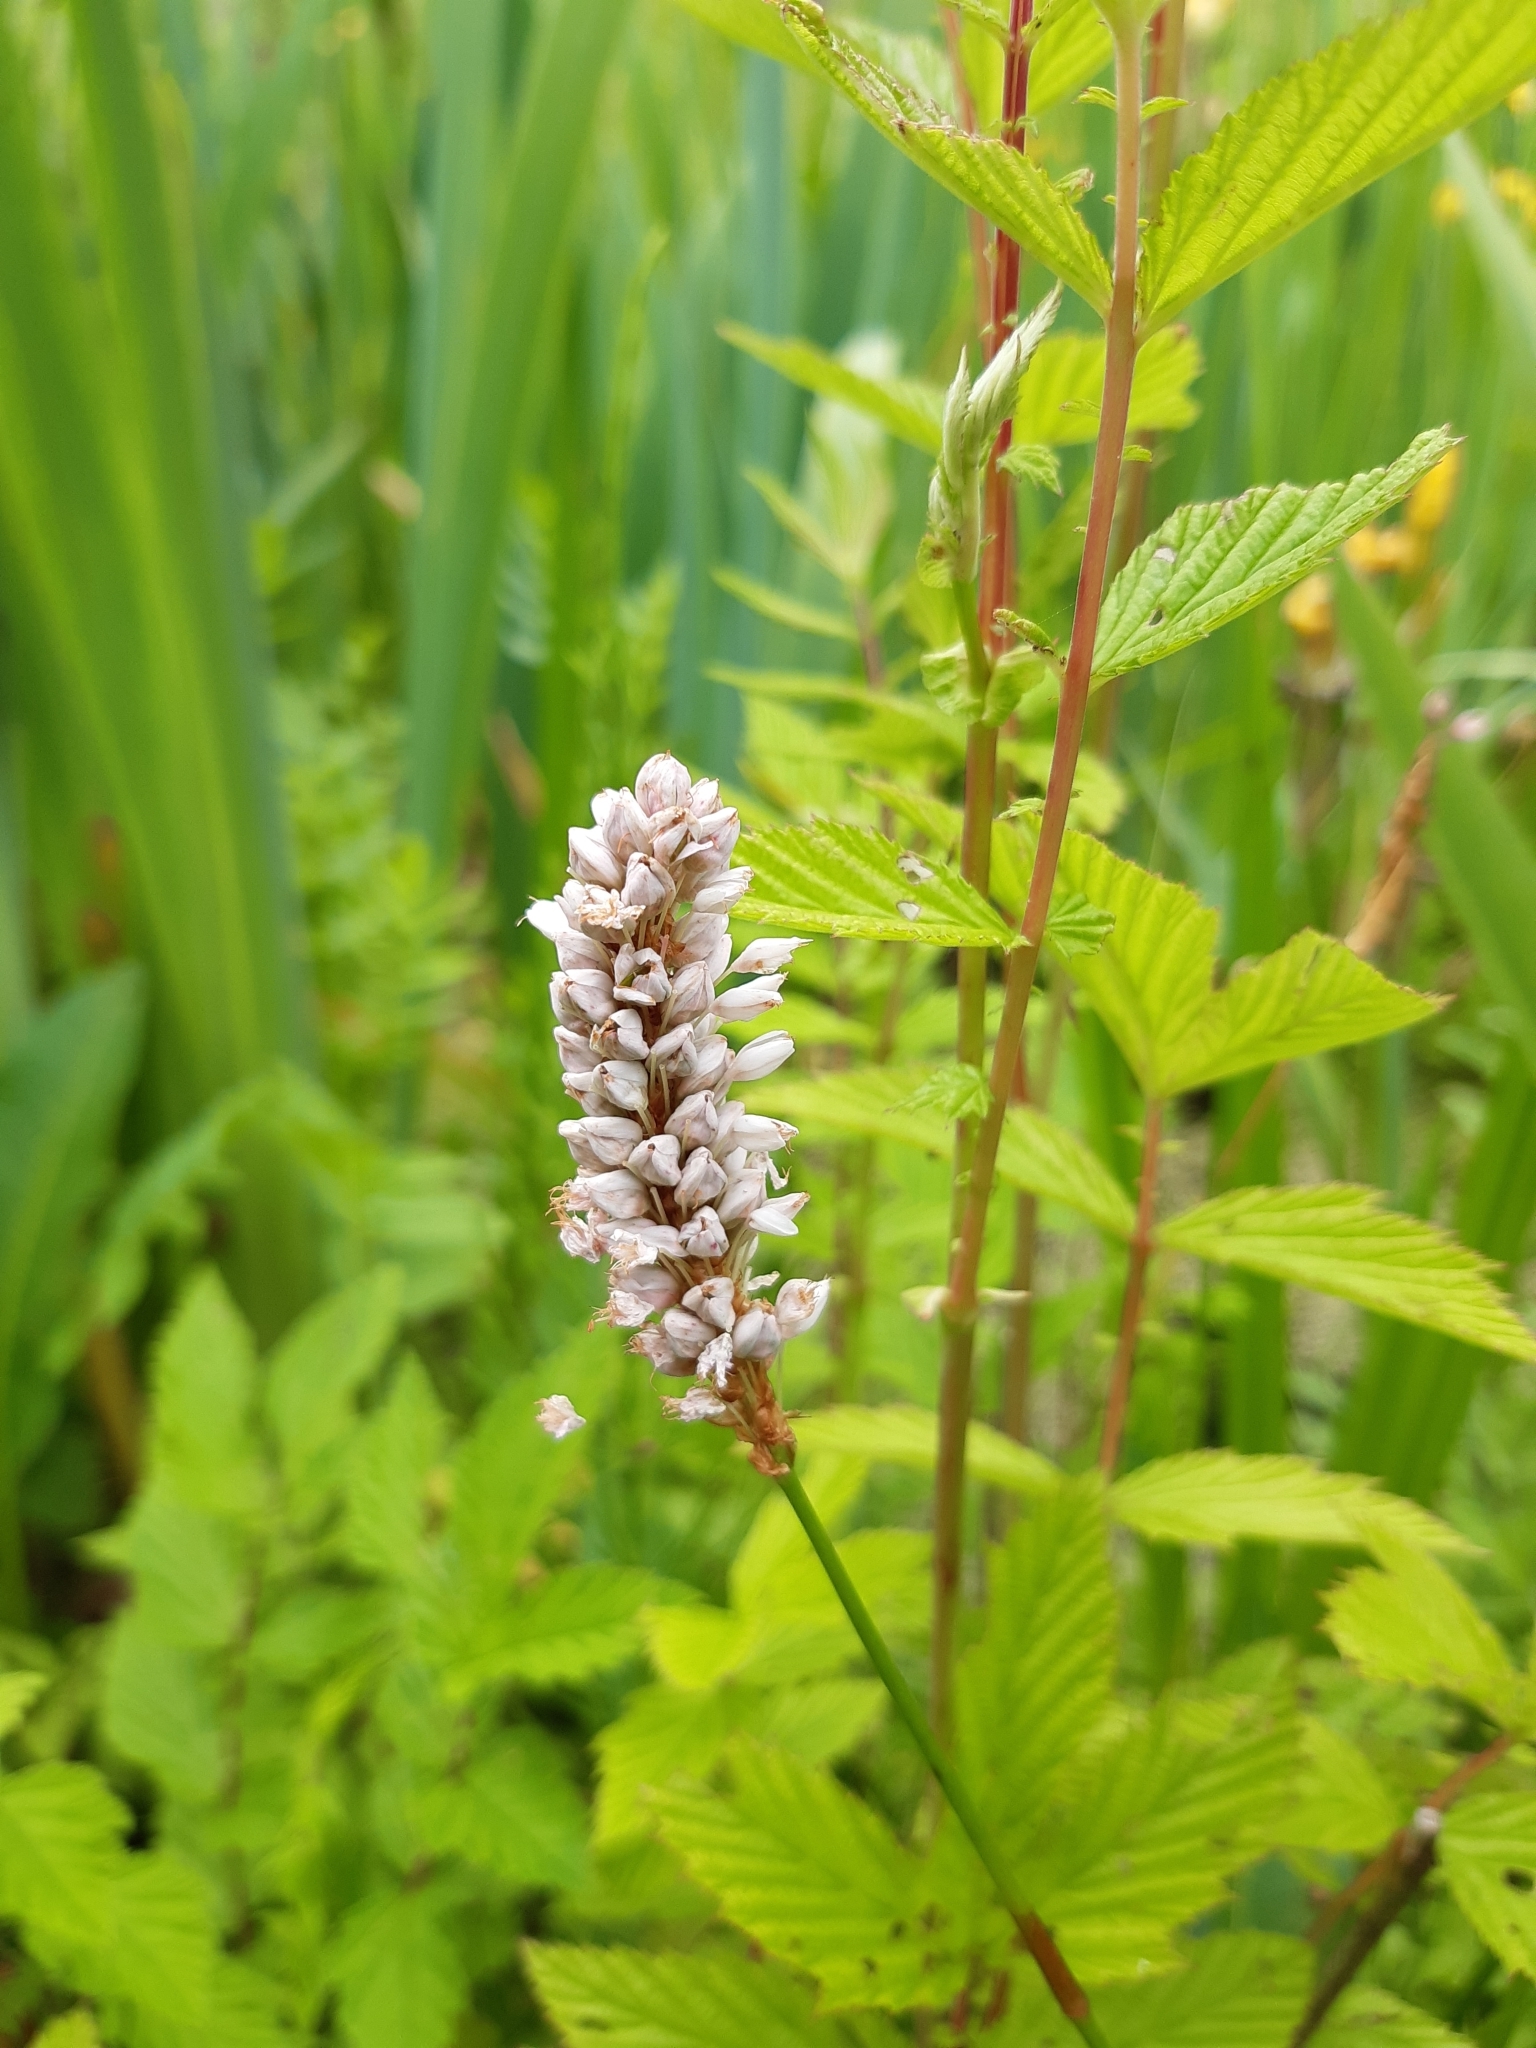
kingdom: Plantae
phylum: Tracheophyta
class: Magnoliopsida
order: Caryophyllales
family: Polygonaceae
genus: Bistorta
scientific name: Bistorta officinalis
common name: Common bistort
